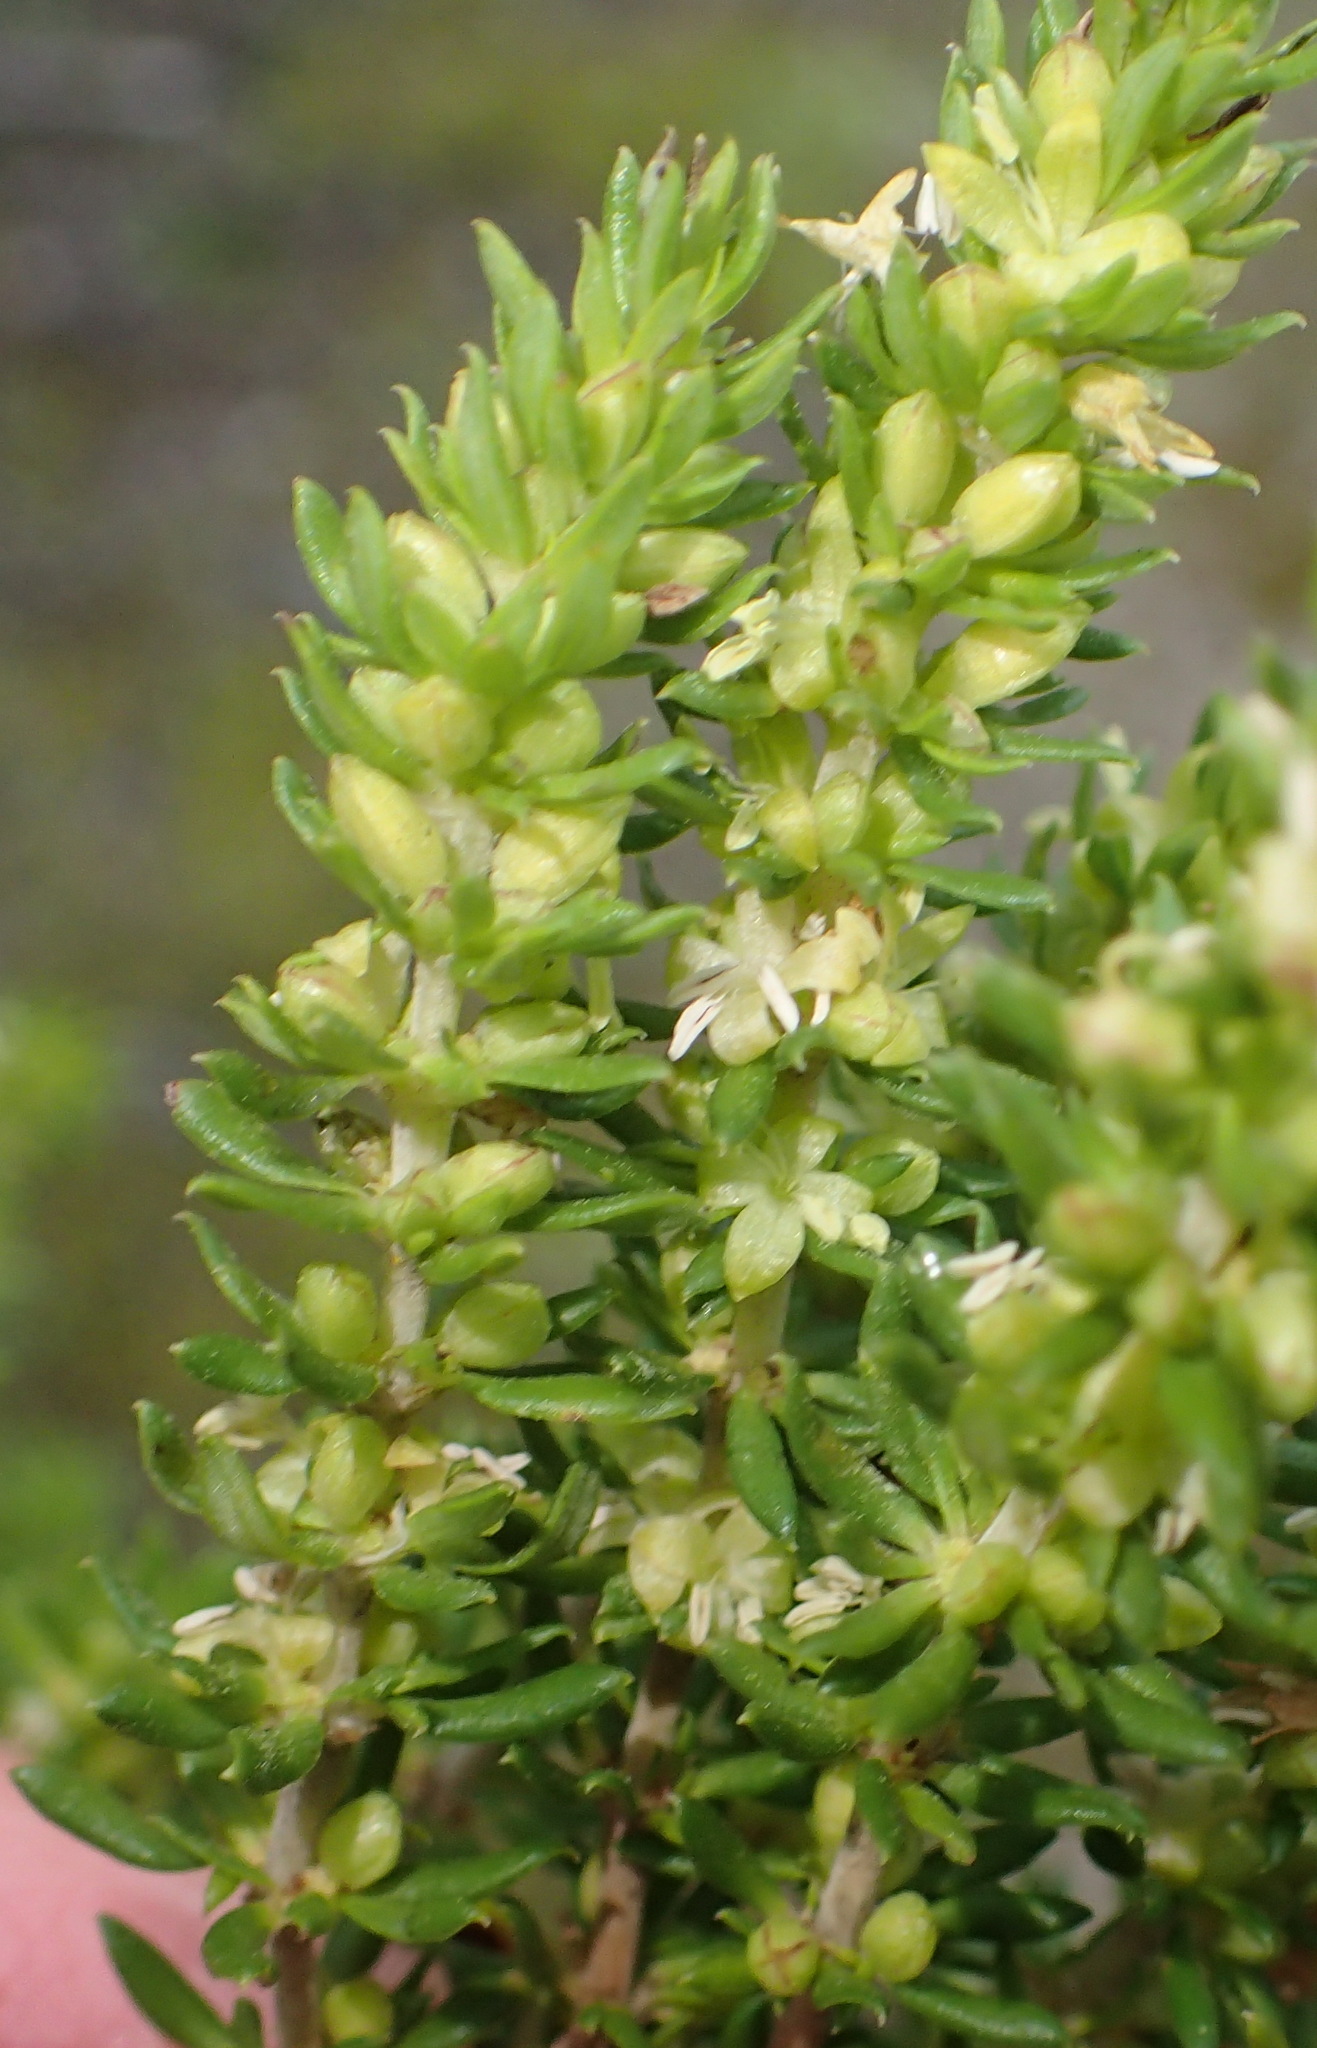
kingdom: Plantae
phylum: Tracheophyta
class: Magnoliopsida
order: Gentianales
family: Rubiaceae
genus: Anthospermum
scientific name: Anthospermum aethiopicum
